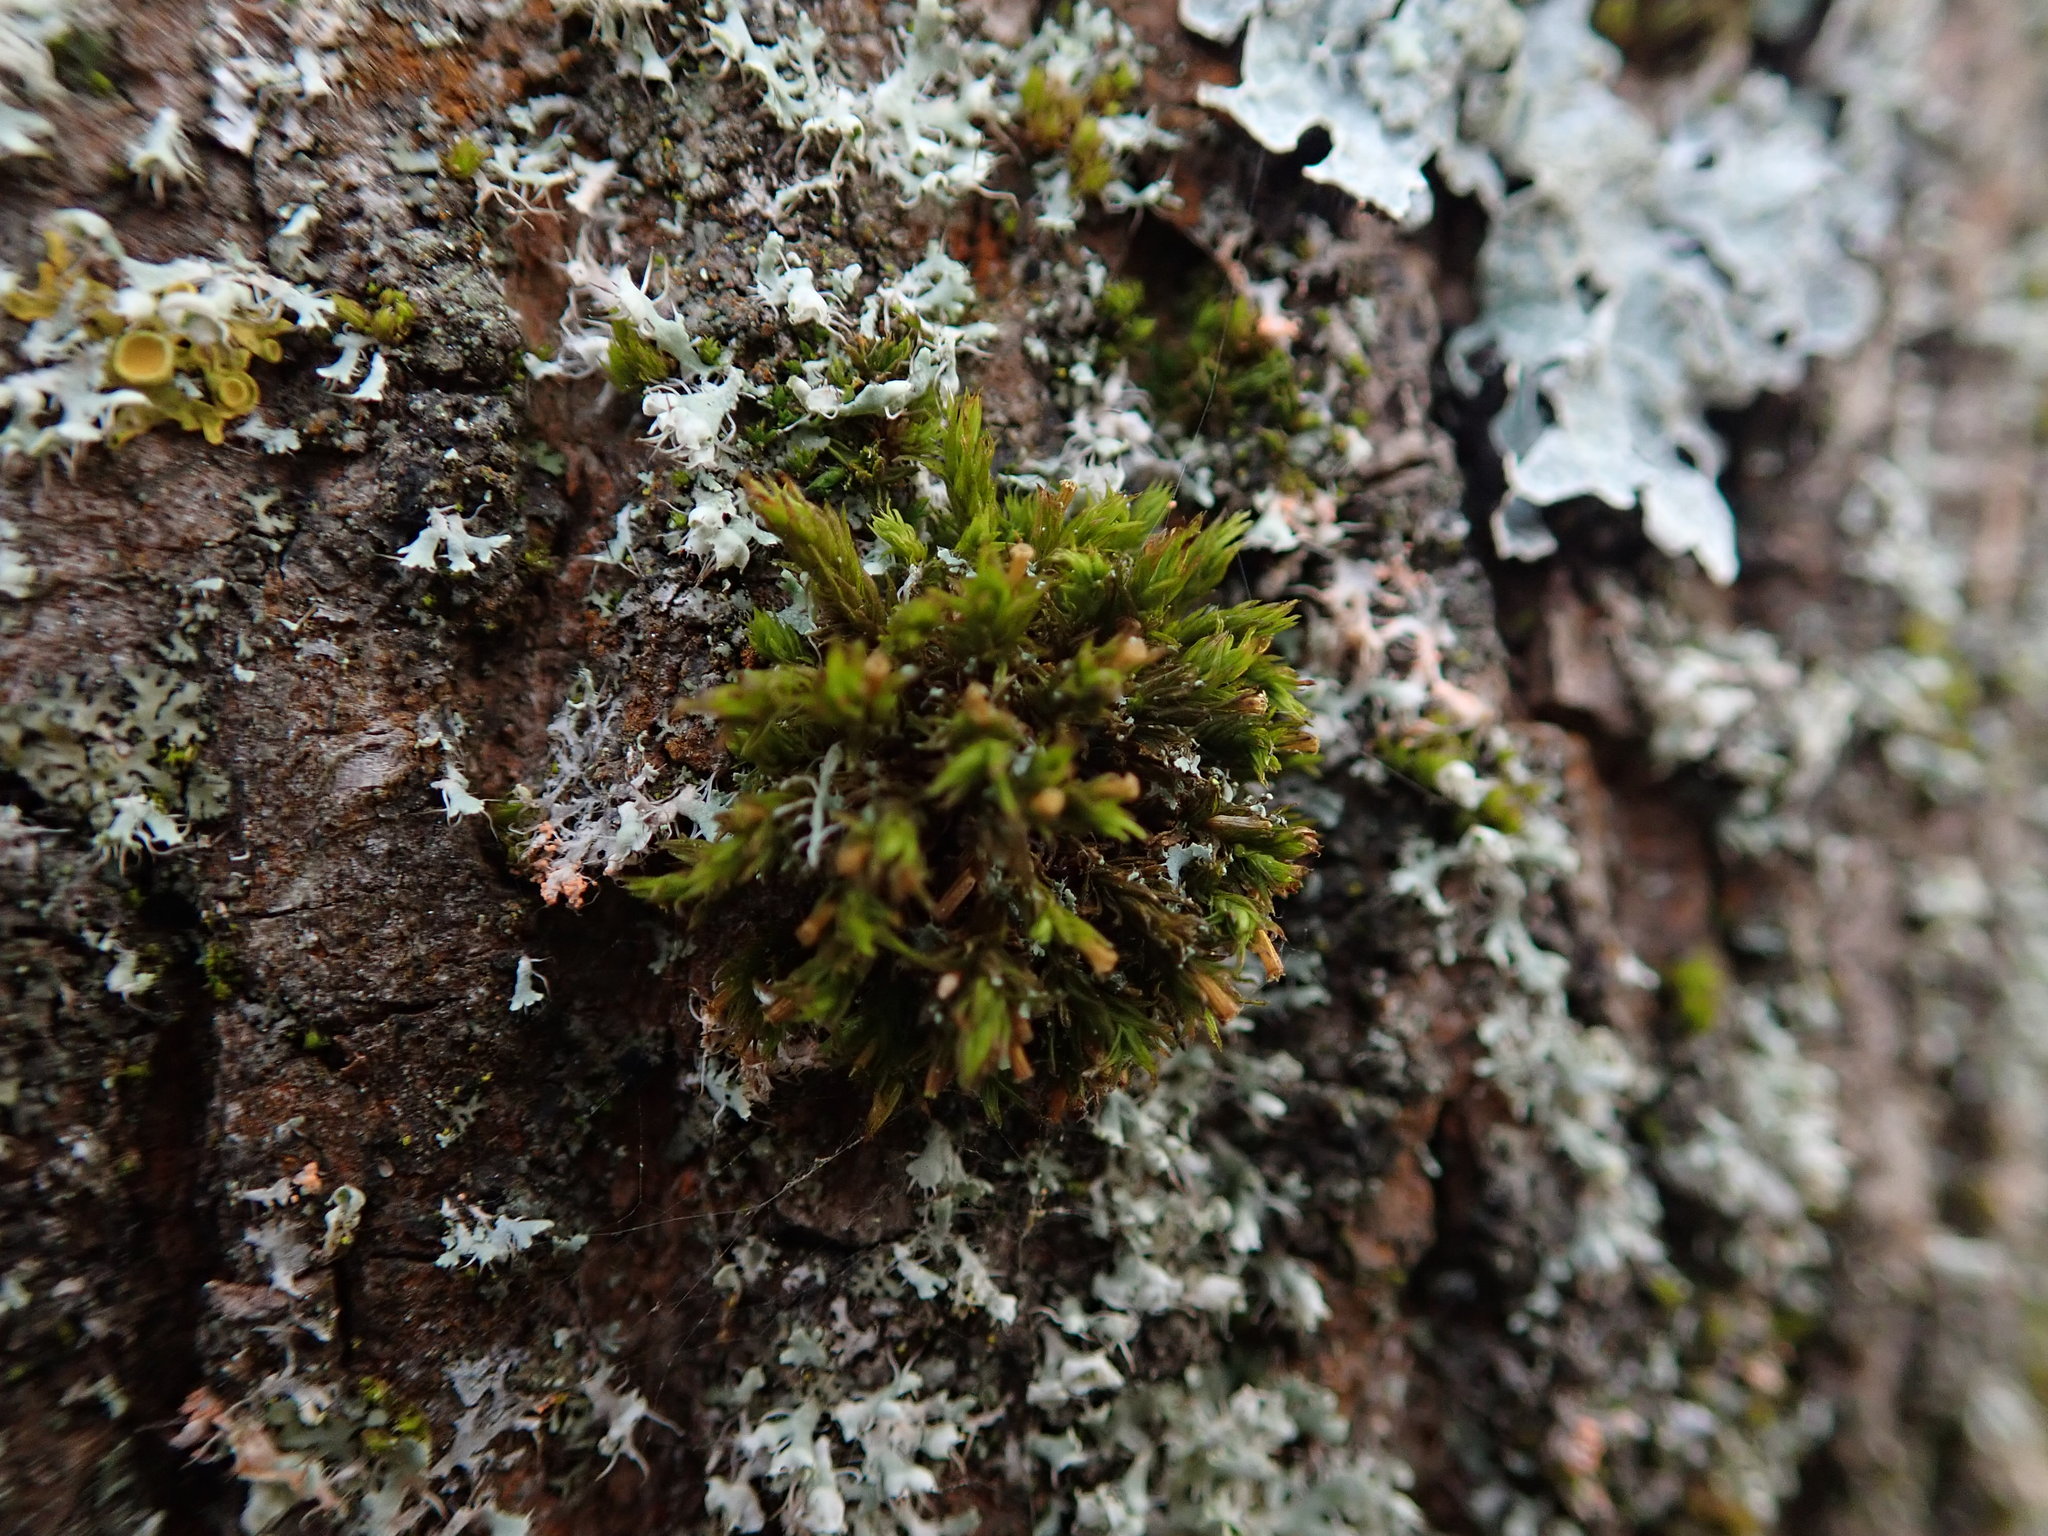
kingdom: Plantae
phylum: Bryophyta
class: Bryopsida
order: Orthotrichales
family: Orthotrichaceae
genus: Lewinskya
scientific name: Lewinskya affinis
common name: Wood bristle-moss
